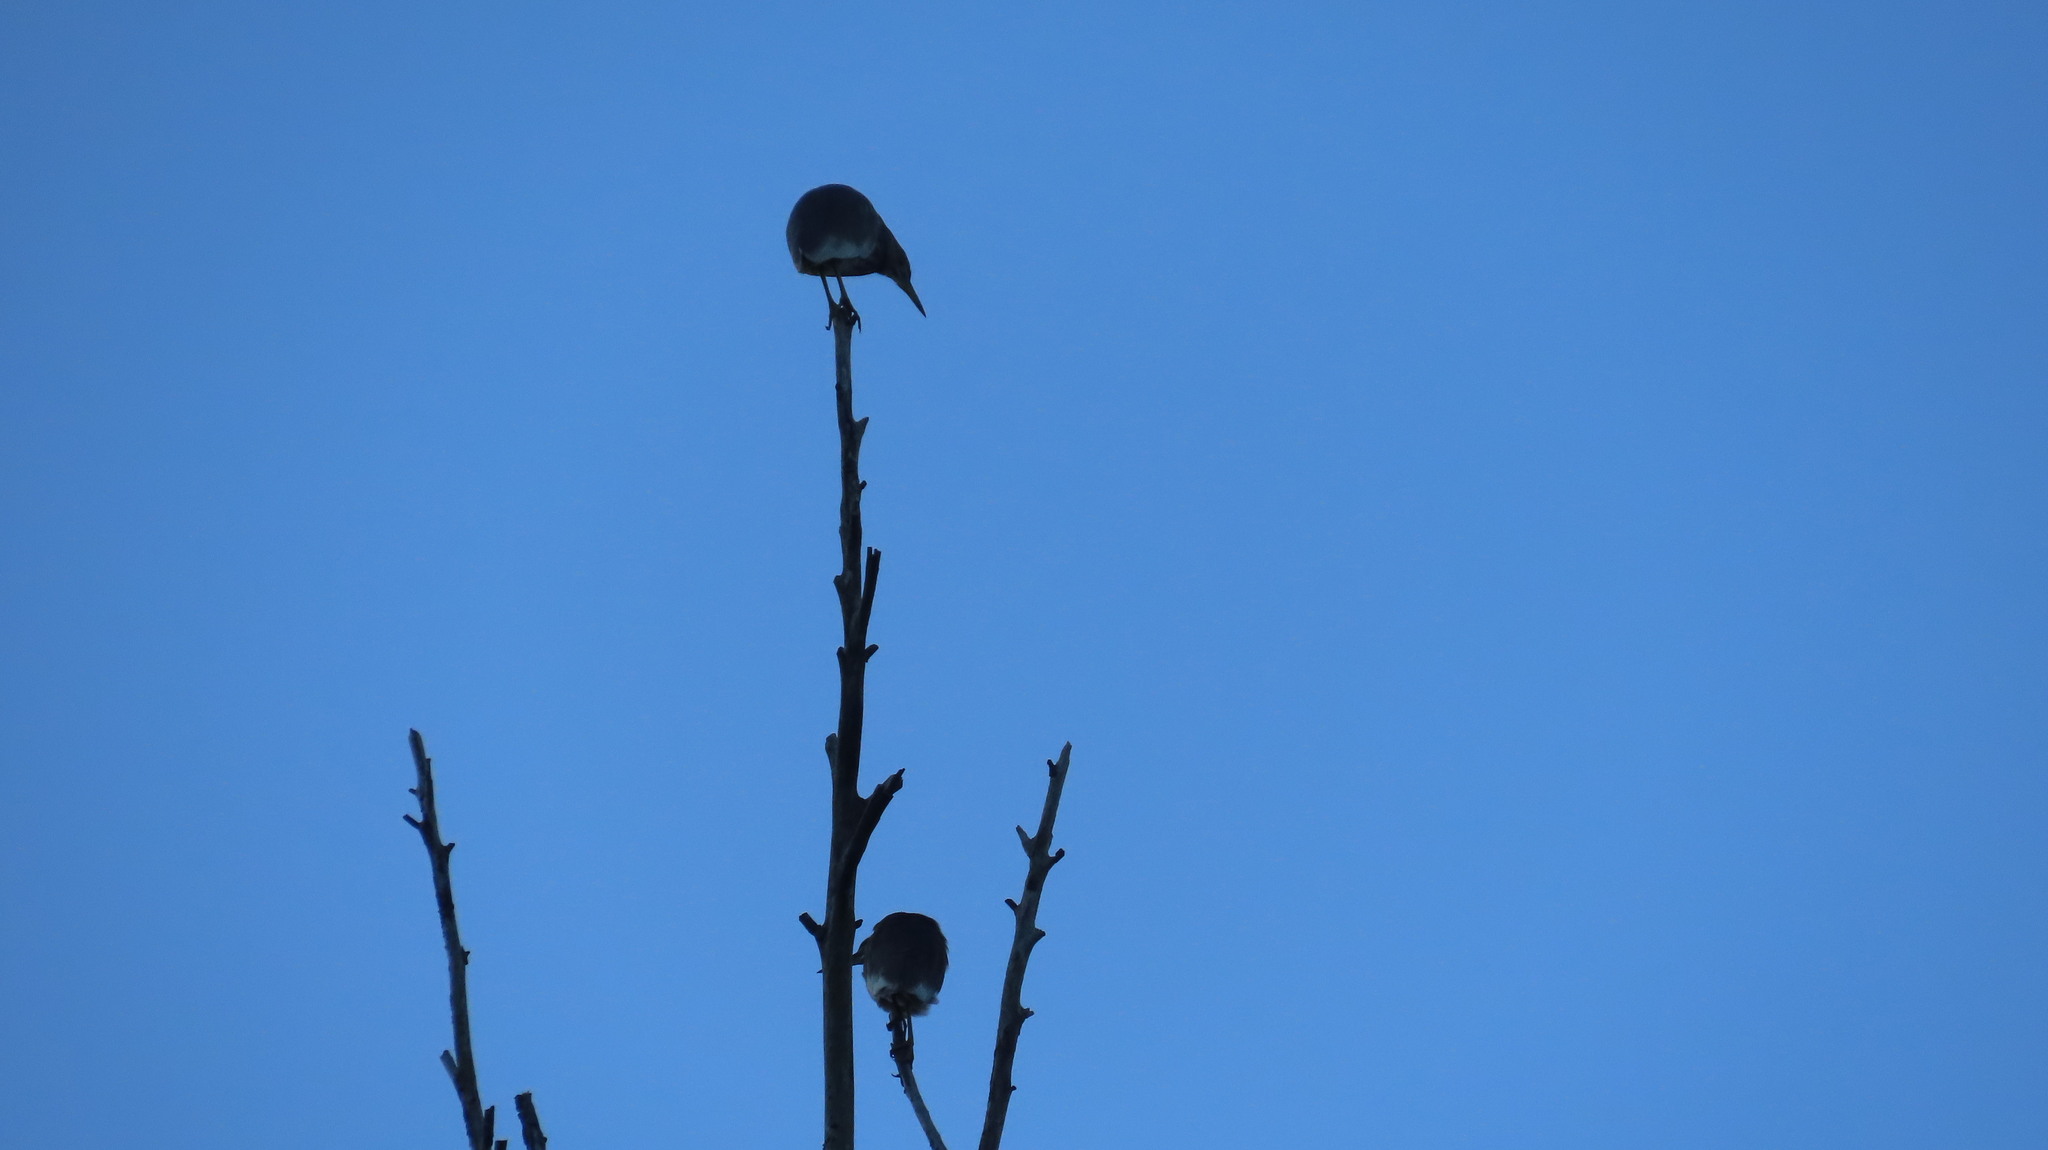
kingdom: Animalia
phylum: Chordata
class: Aves
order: Pelecaniformes
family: Ardeidae
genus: Ardeola
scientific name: Ardeola grayii
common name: Indian pond heron
